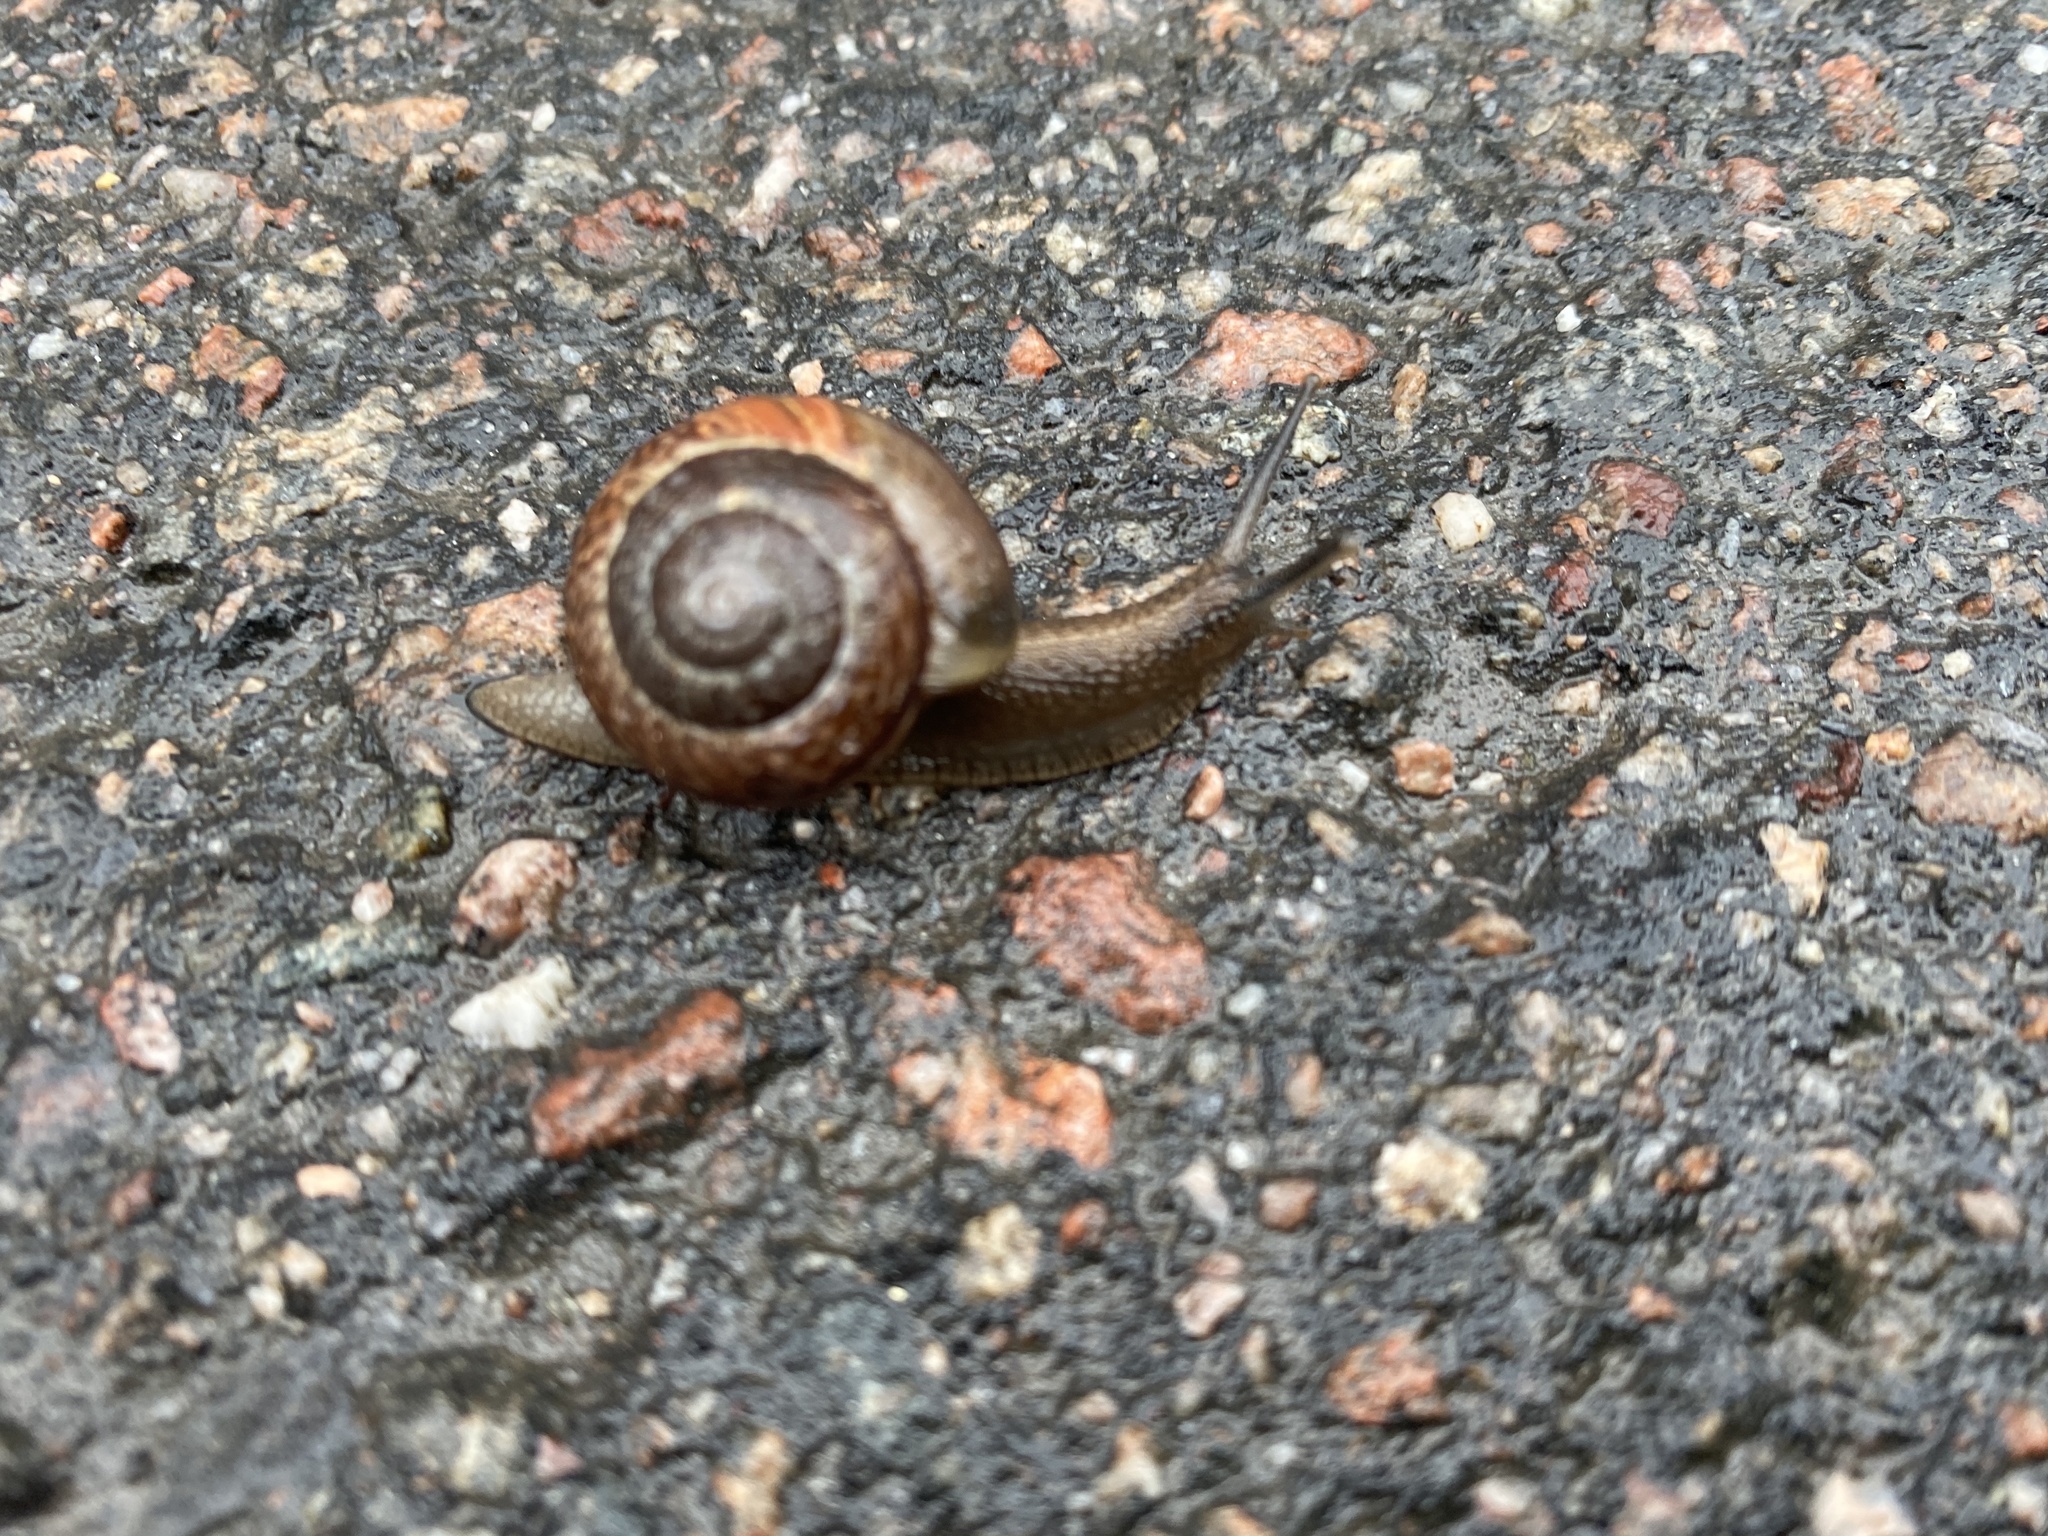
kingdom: Animalia
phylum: Mollusca
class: Gastropoda
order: Stylommatophora
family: Helicidae
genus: Arianta
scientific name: Arianta arbustorum
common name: Copse snail
